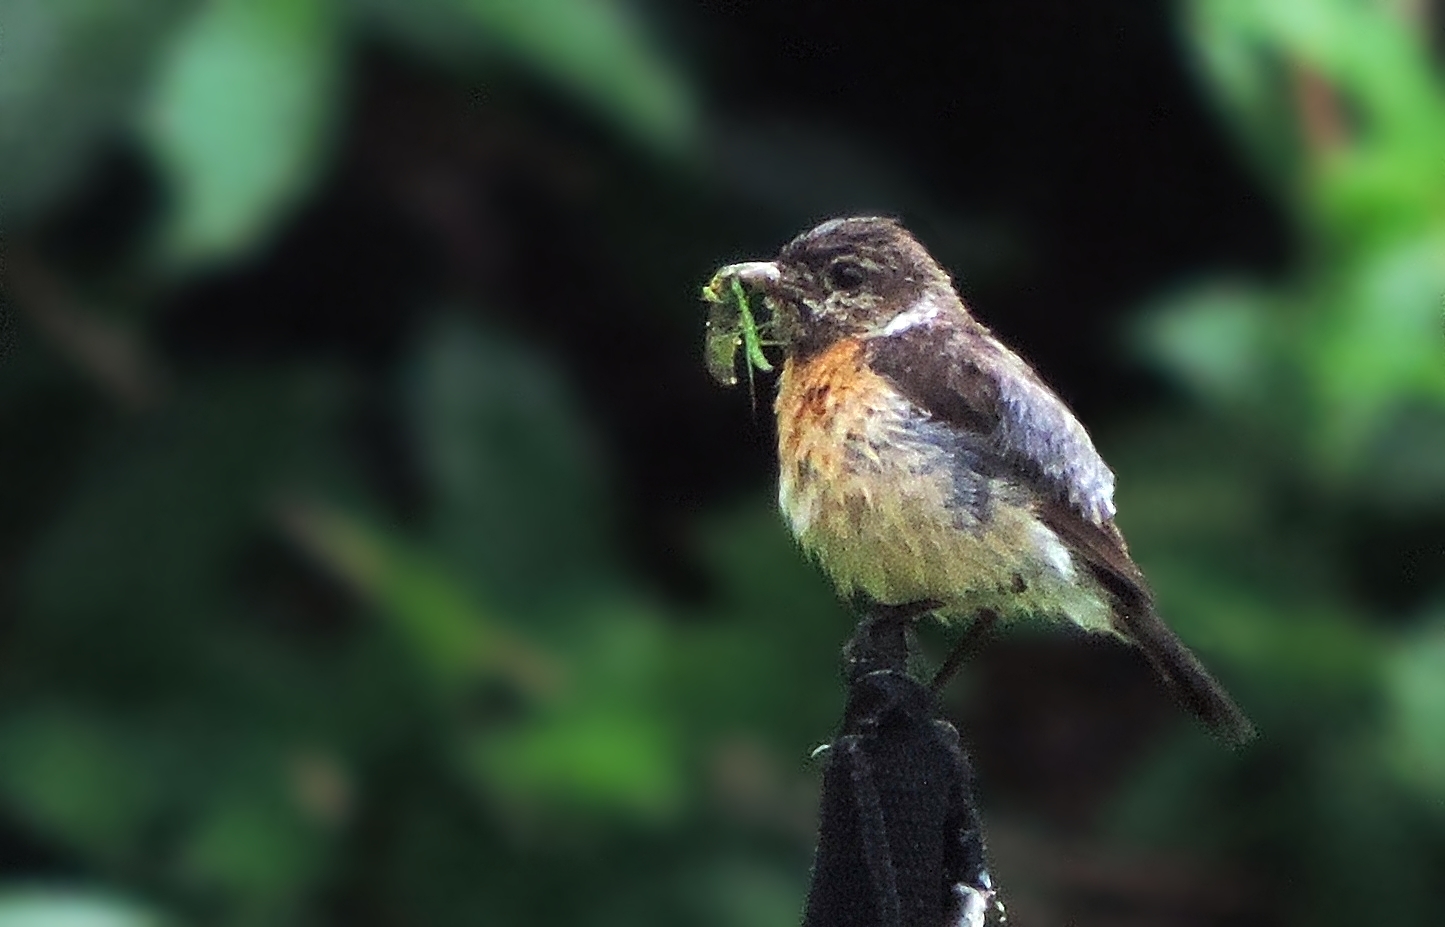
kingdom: Animalia
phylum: Chordata
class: Aves
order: Passeriformes
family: Muscicapidae
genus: Saxicola
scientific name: Saxicola torquatus
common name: African stonechat
